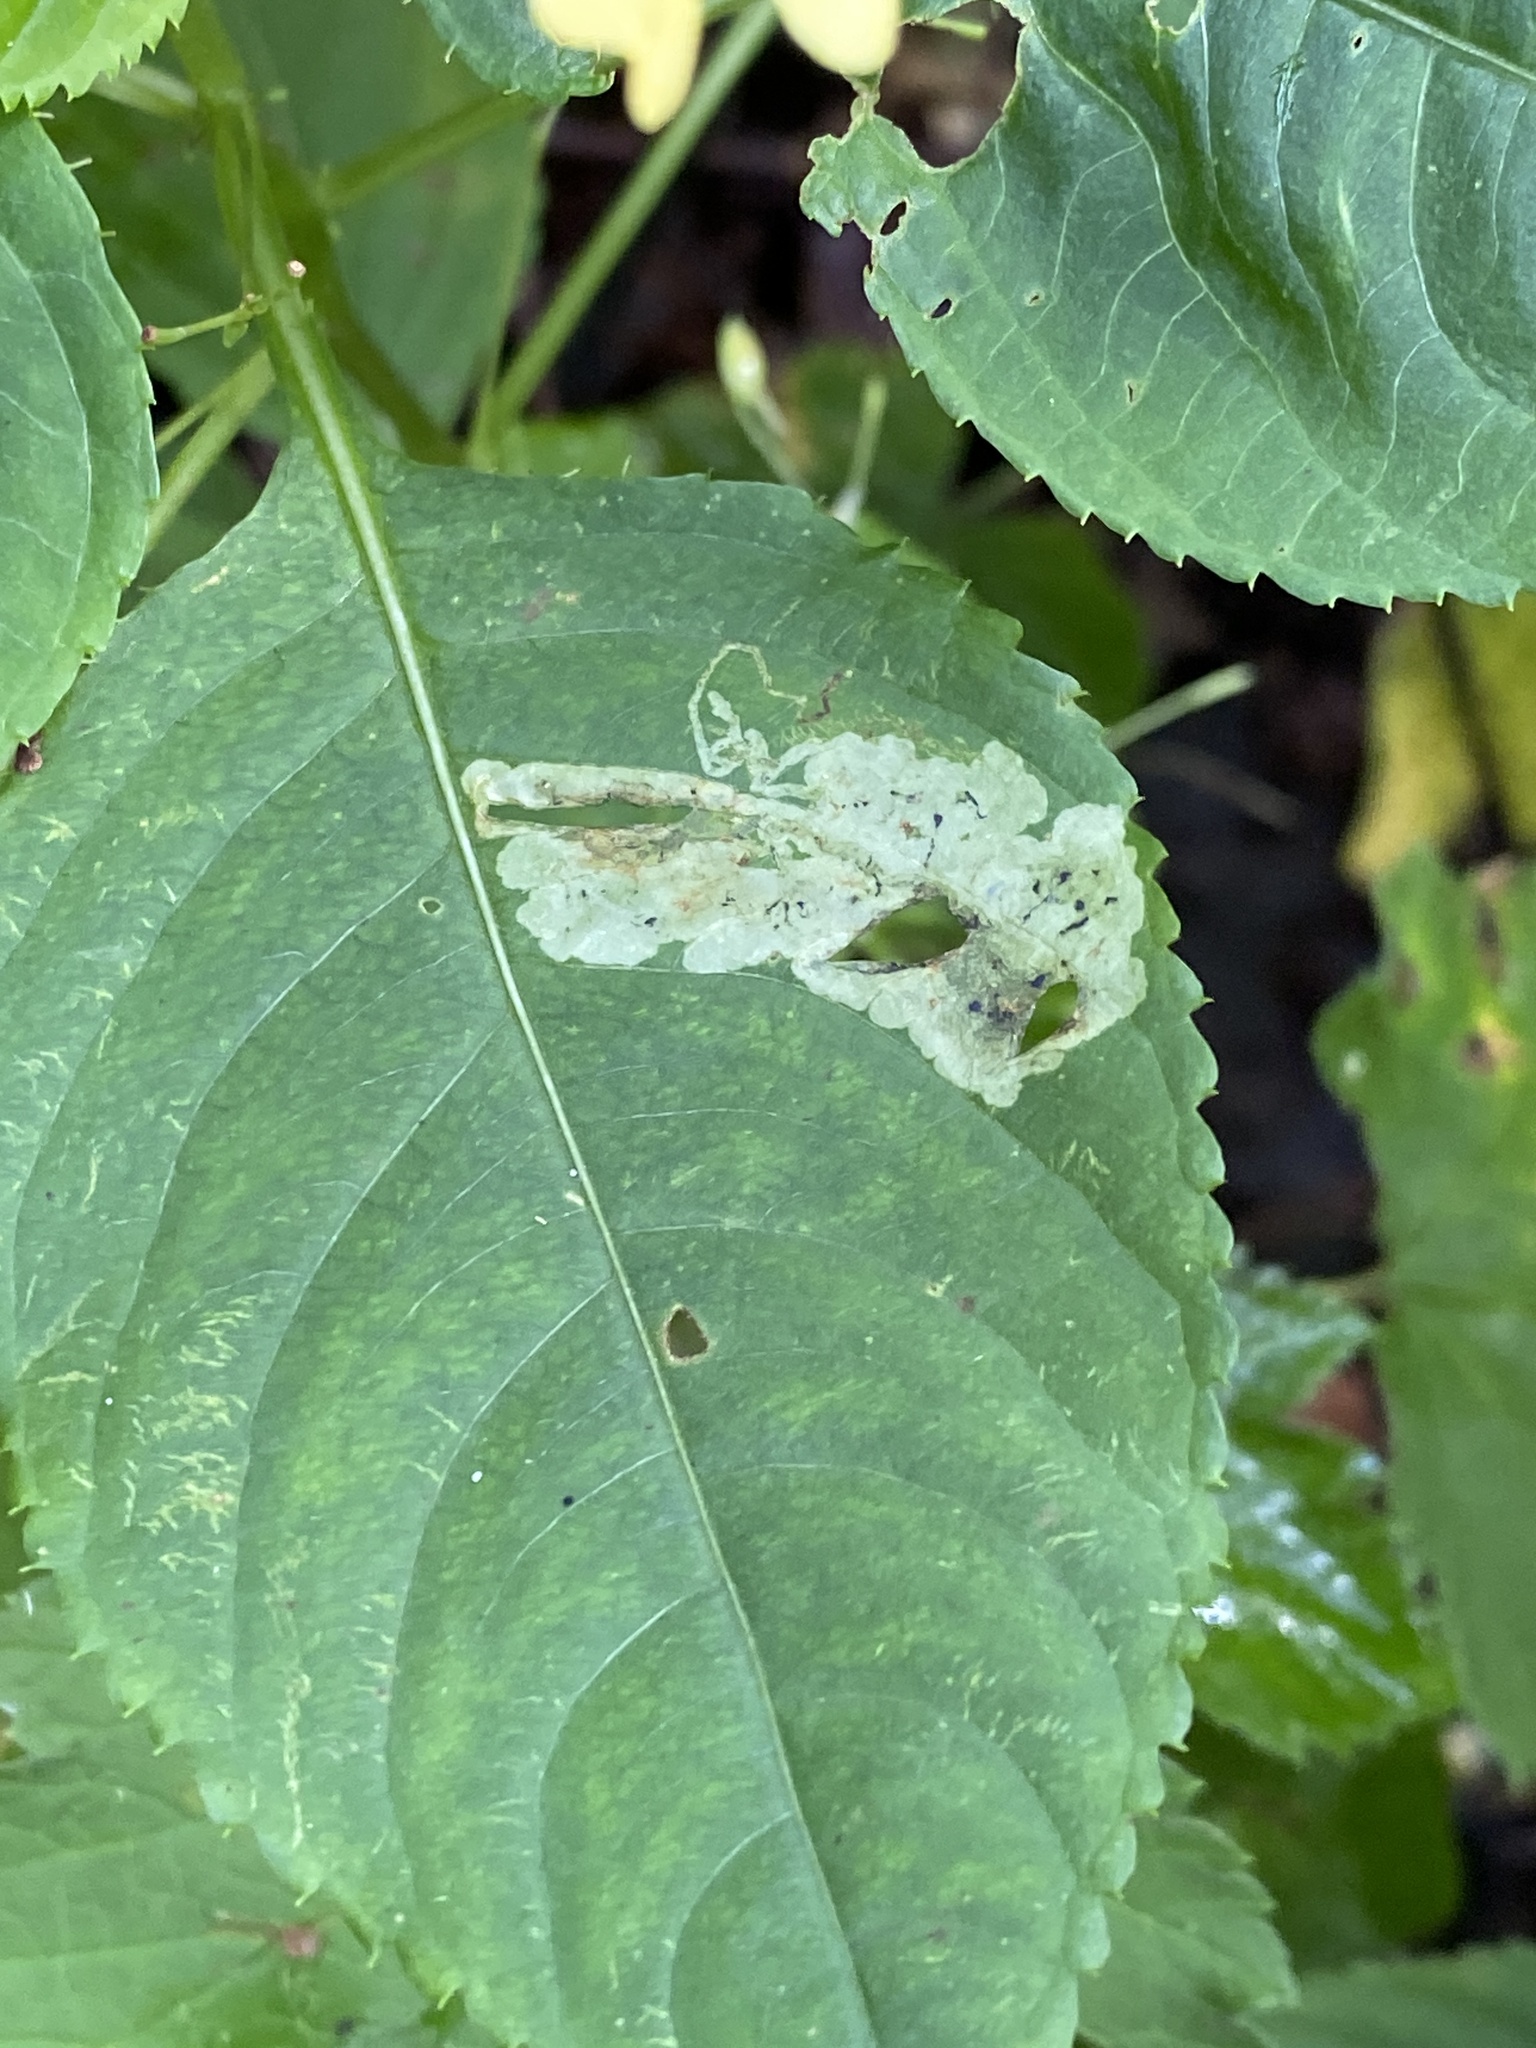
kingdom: Animalia
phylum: Arthropoda
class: Insecta
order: Diptera
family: Agromyzidae
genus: Phytoliriomyza
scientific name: Phytoliriomyza melampyga
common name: Jewelweed leaf-miner fly
